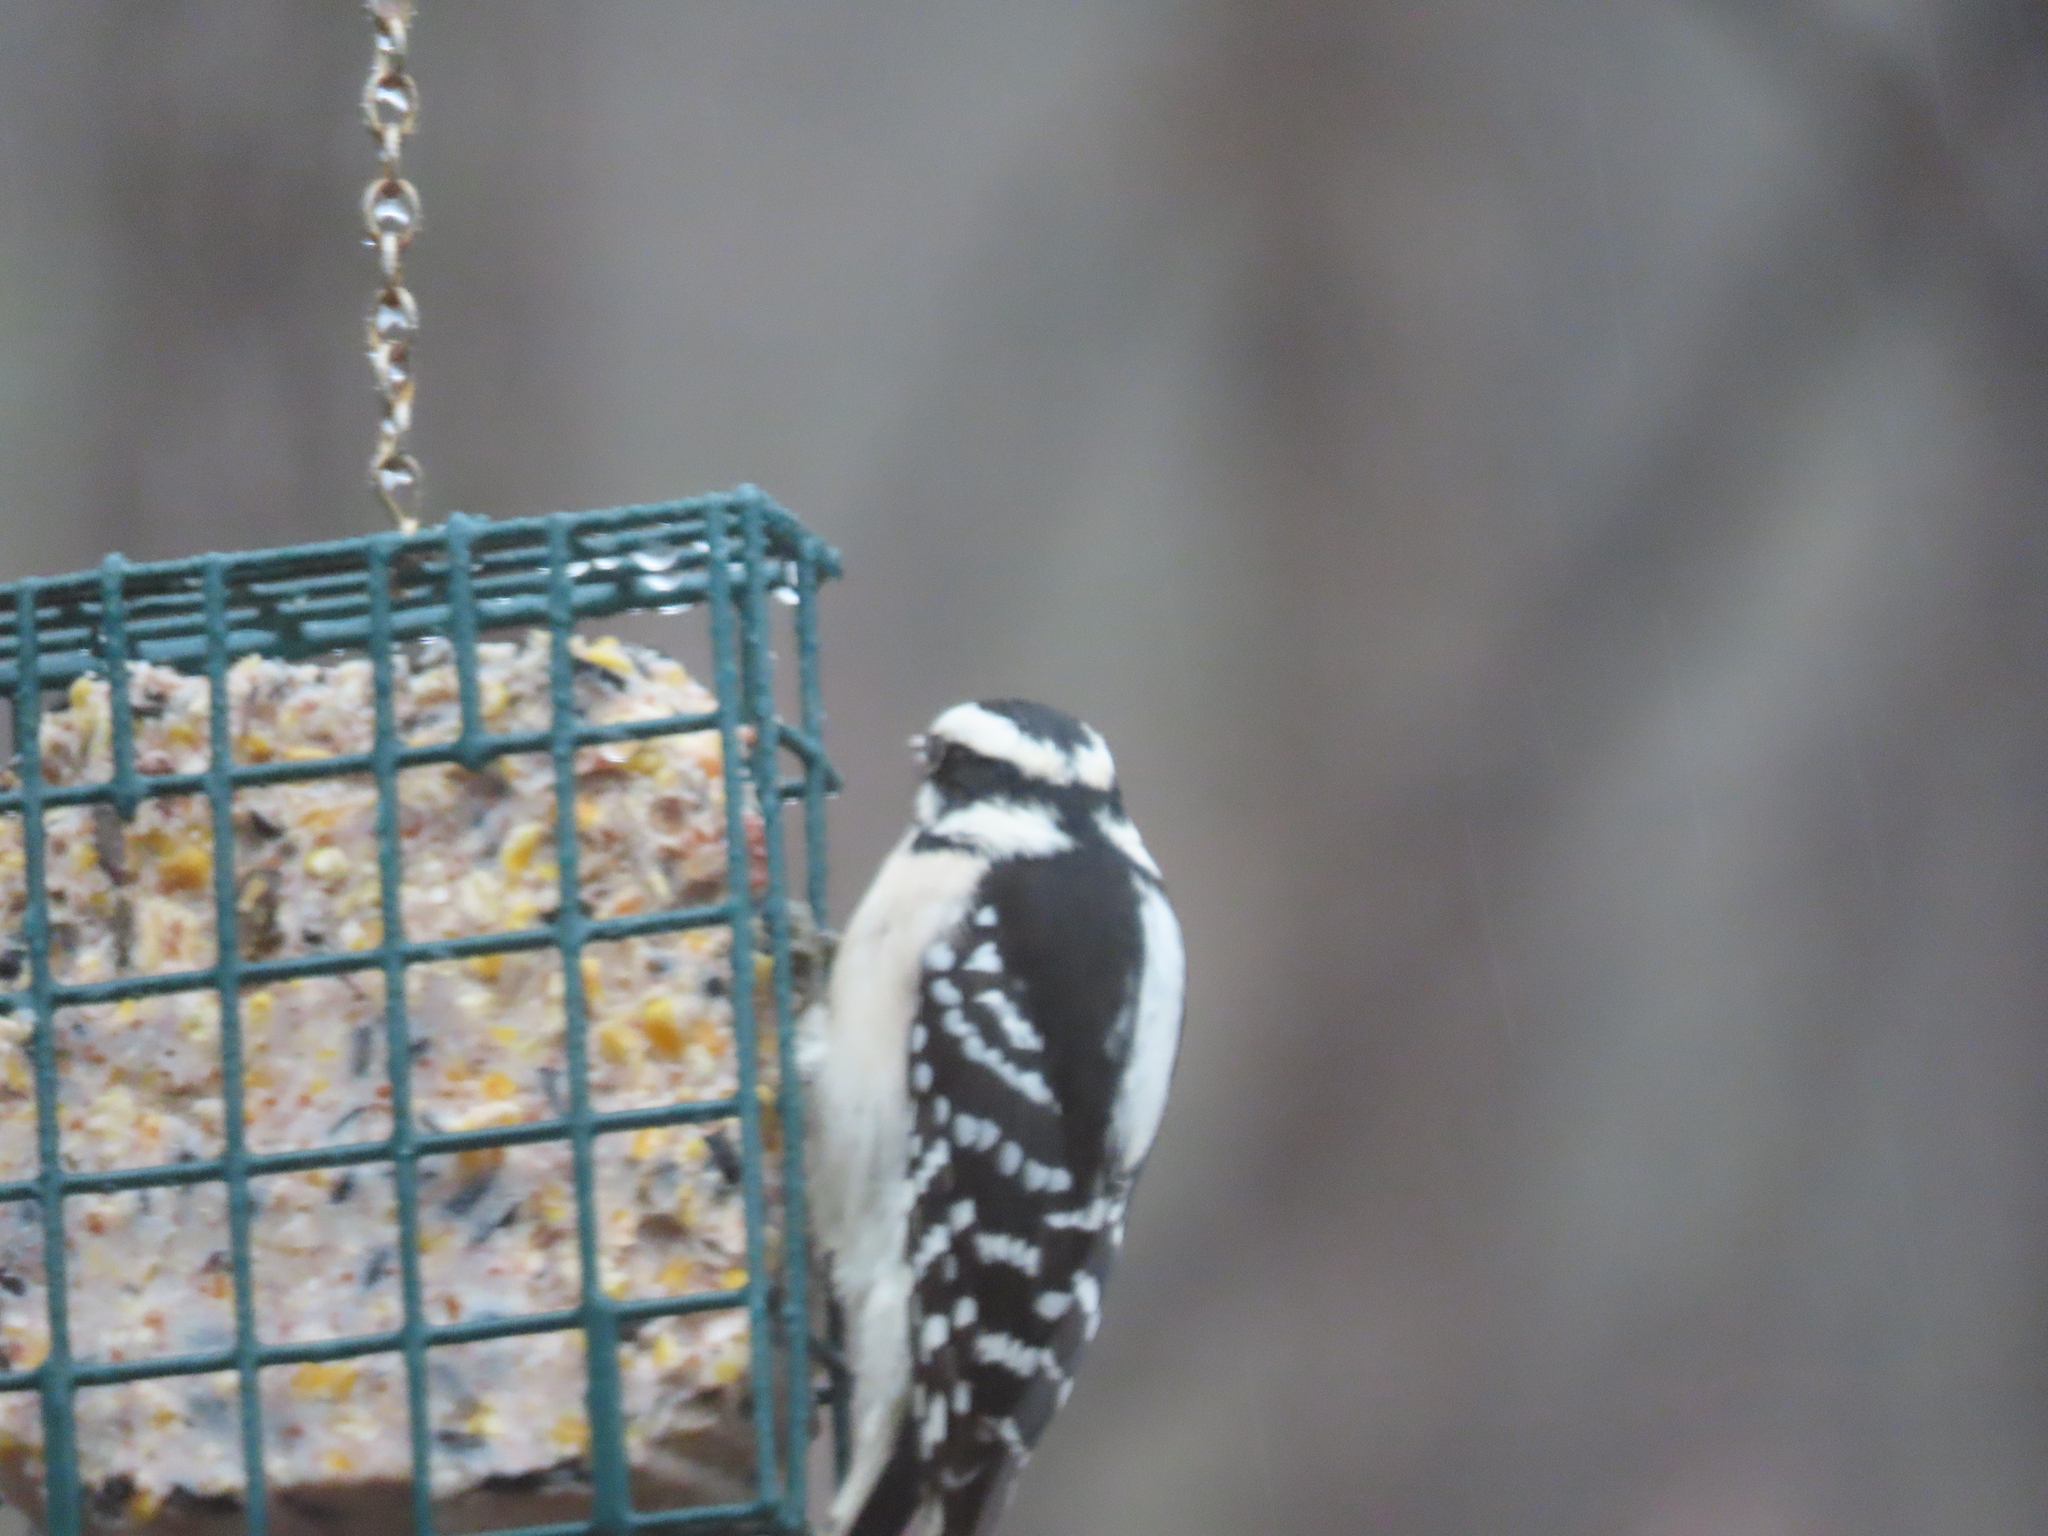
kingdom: Animalia
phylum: Chordata
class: Aves
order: Piciformes
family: Picidae
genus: Dryobates
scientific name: Dryobates pubescens
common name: Downy woodpecker
